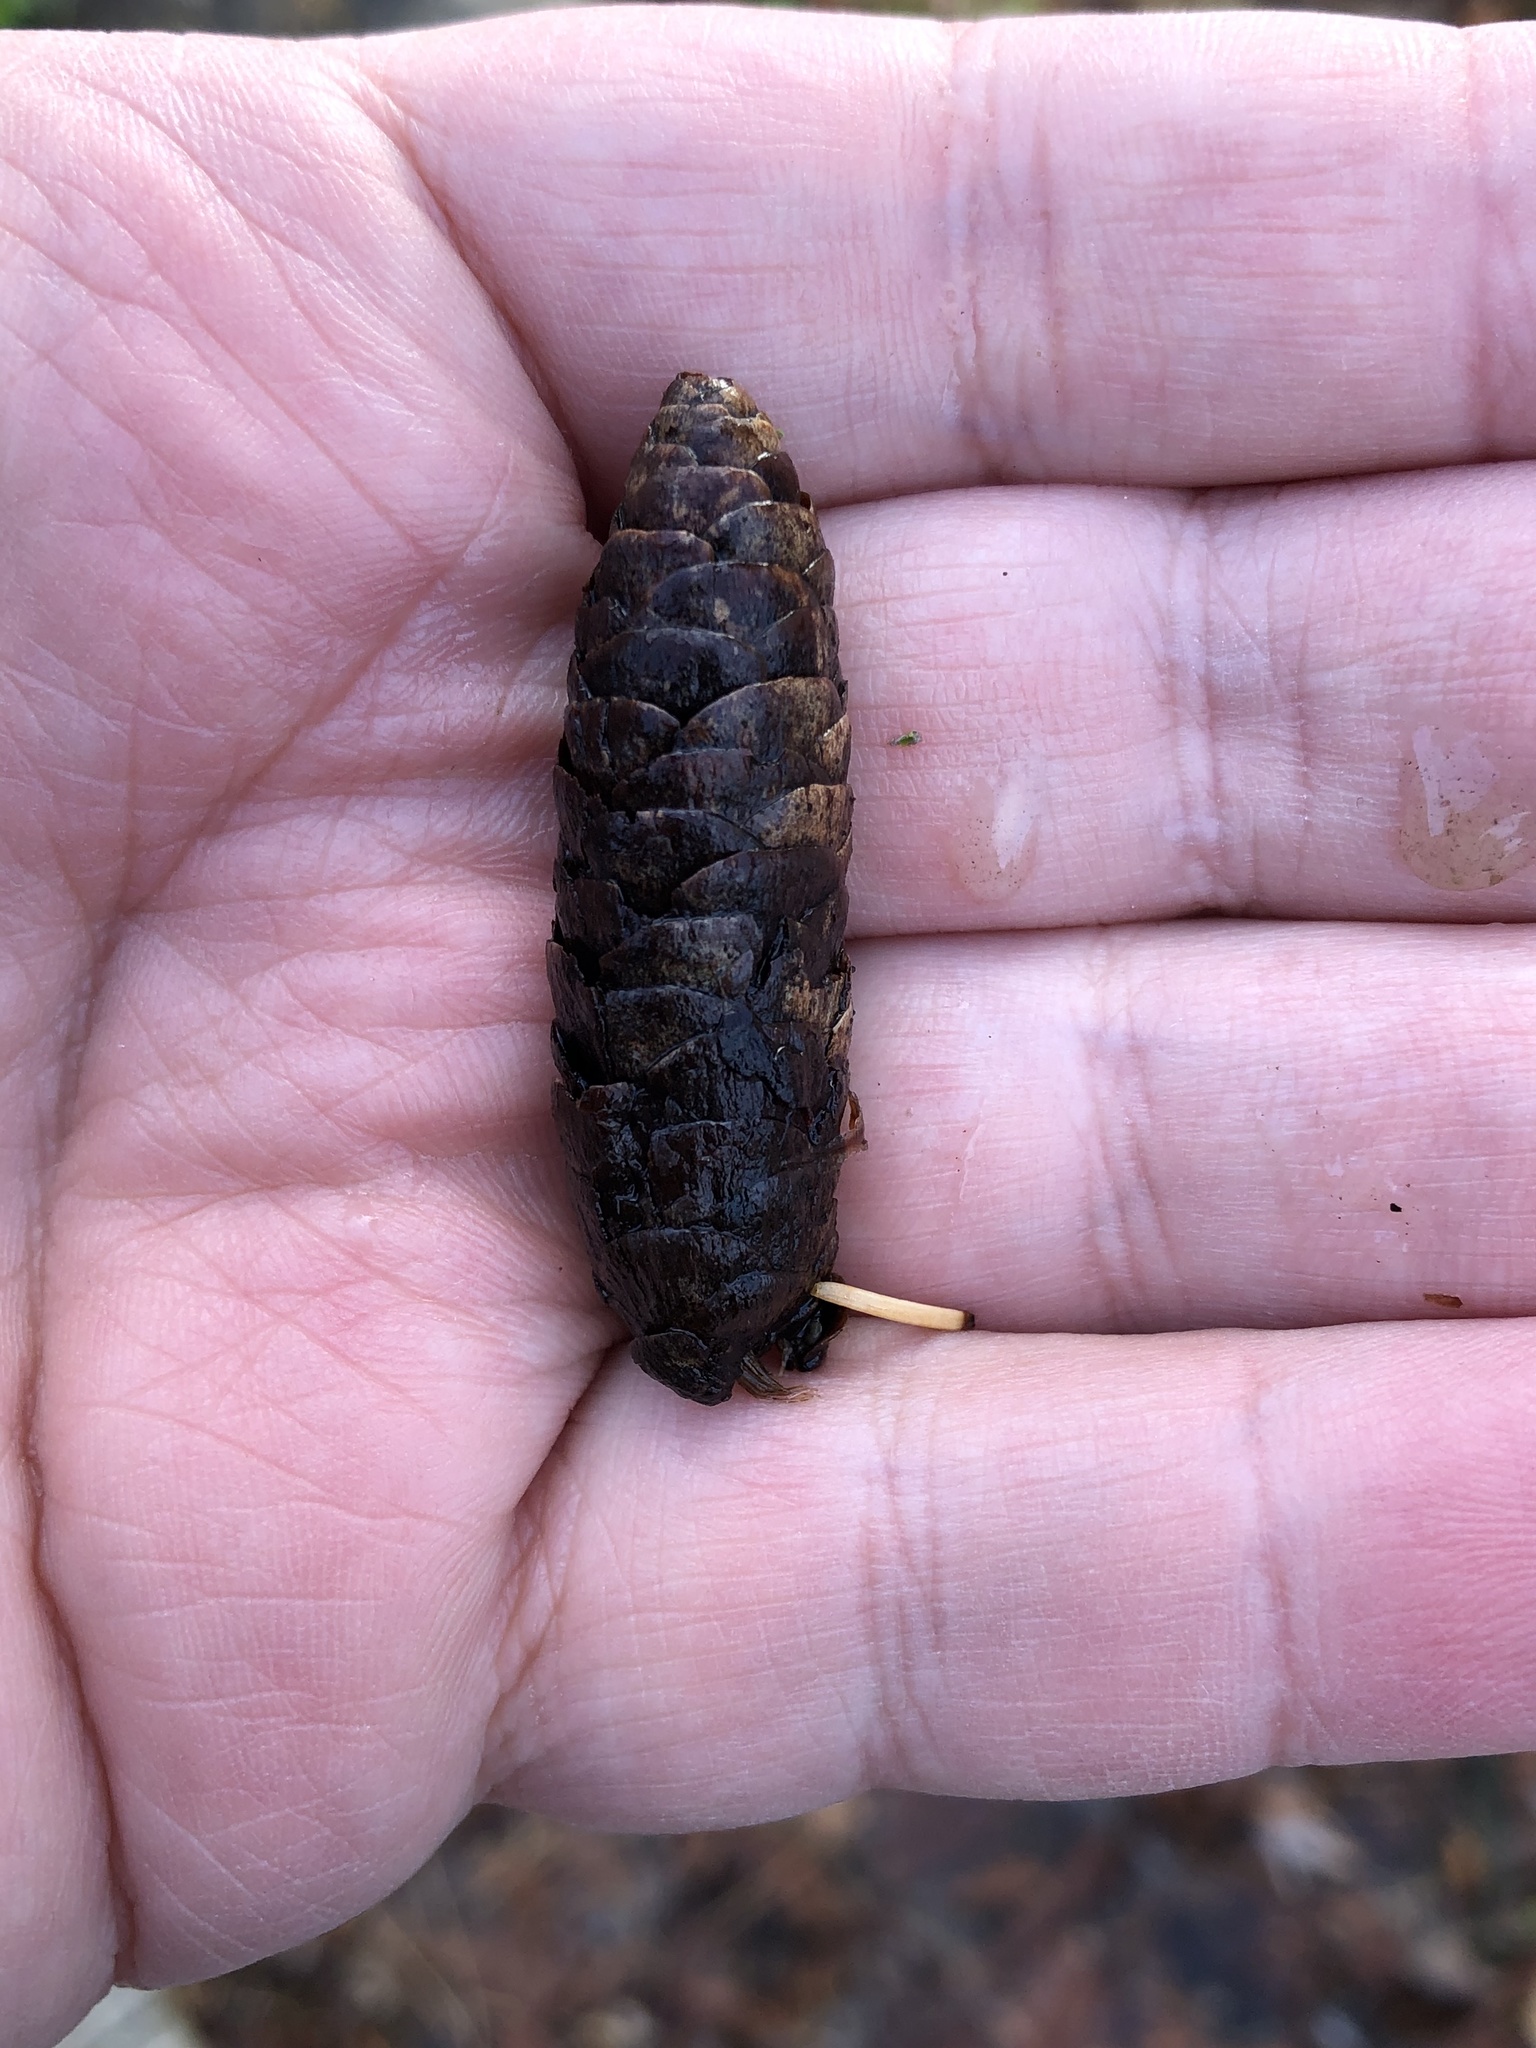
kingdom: Plantae
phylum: Tracheophyta
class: Pinopsida
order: Pinales
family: Pinaceae
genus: Picea
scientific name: Picea glauca
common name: White spruce
